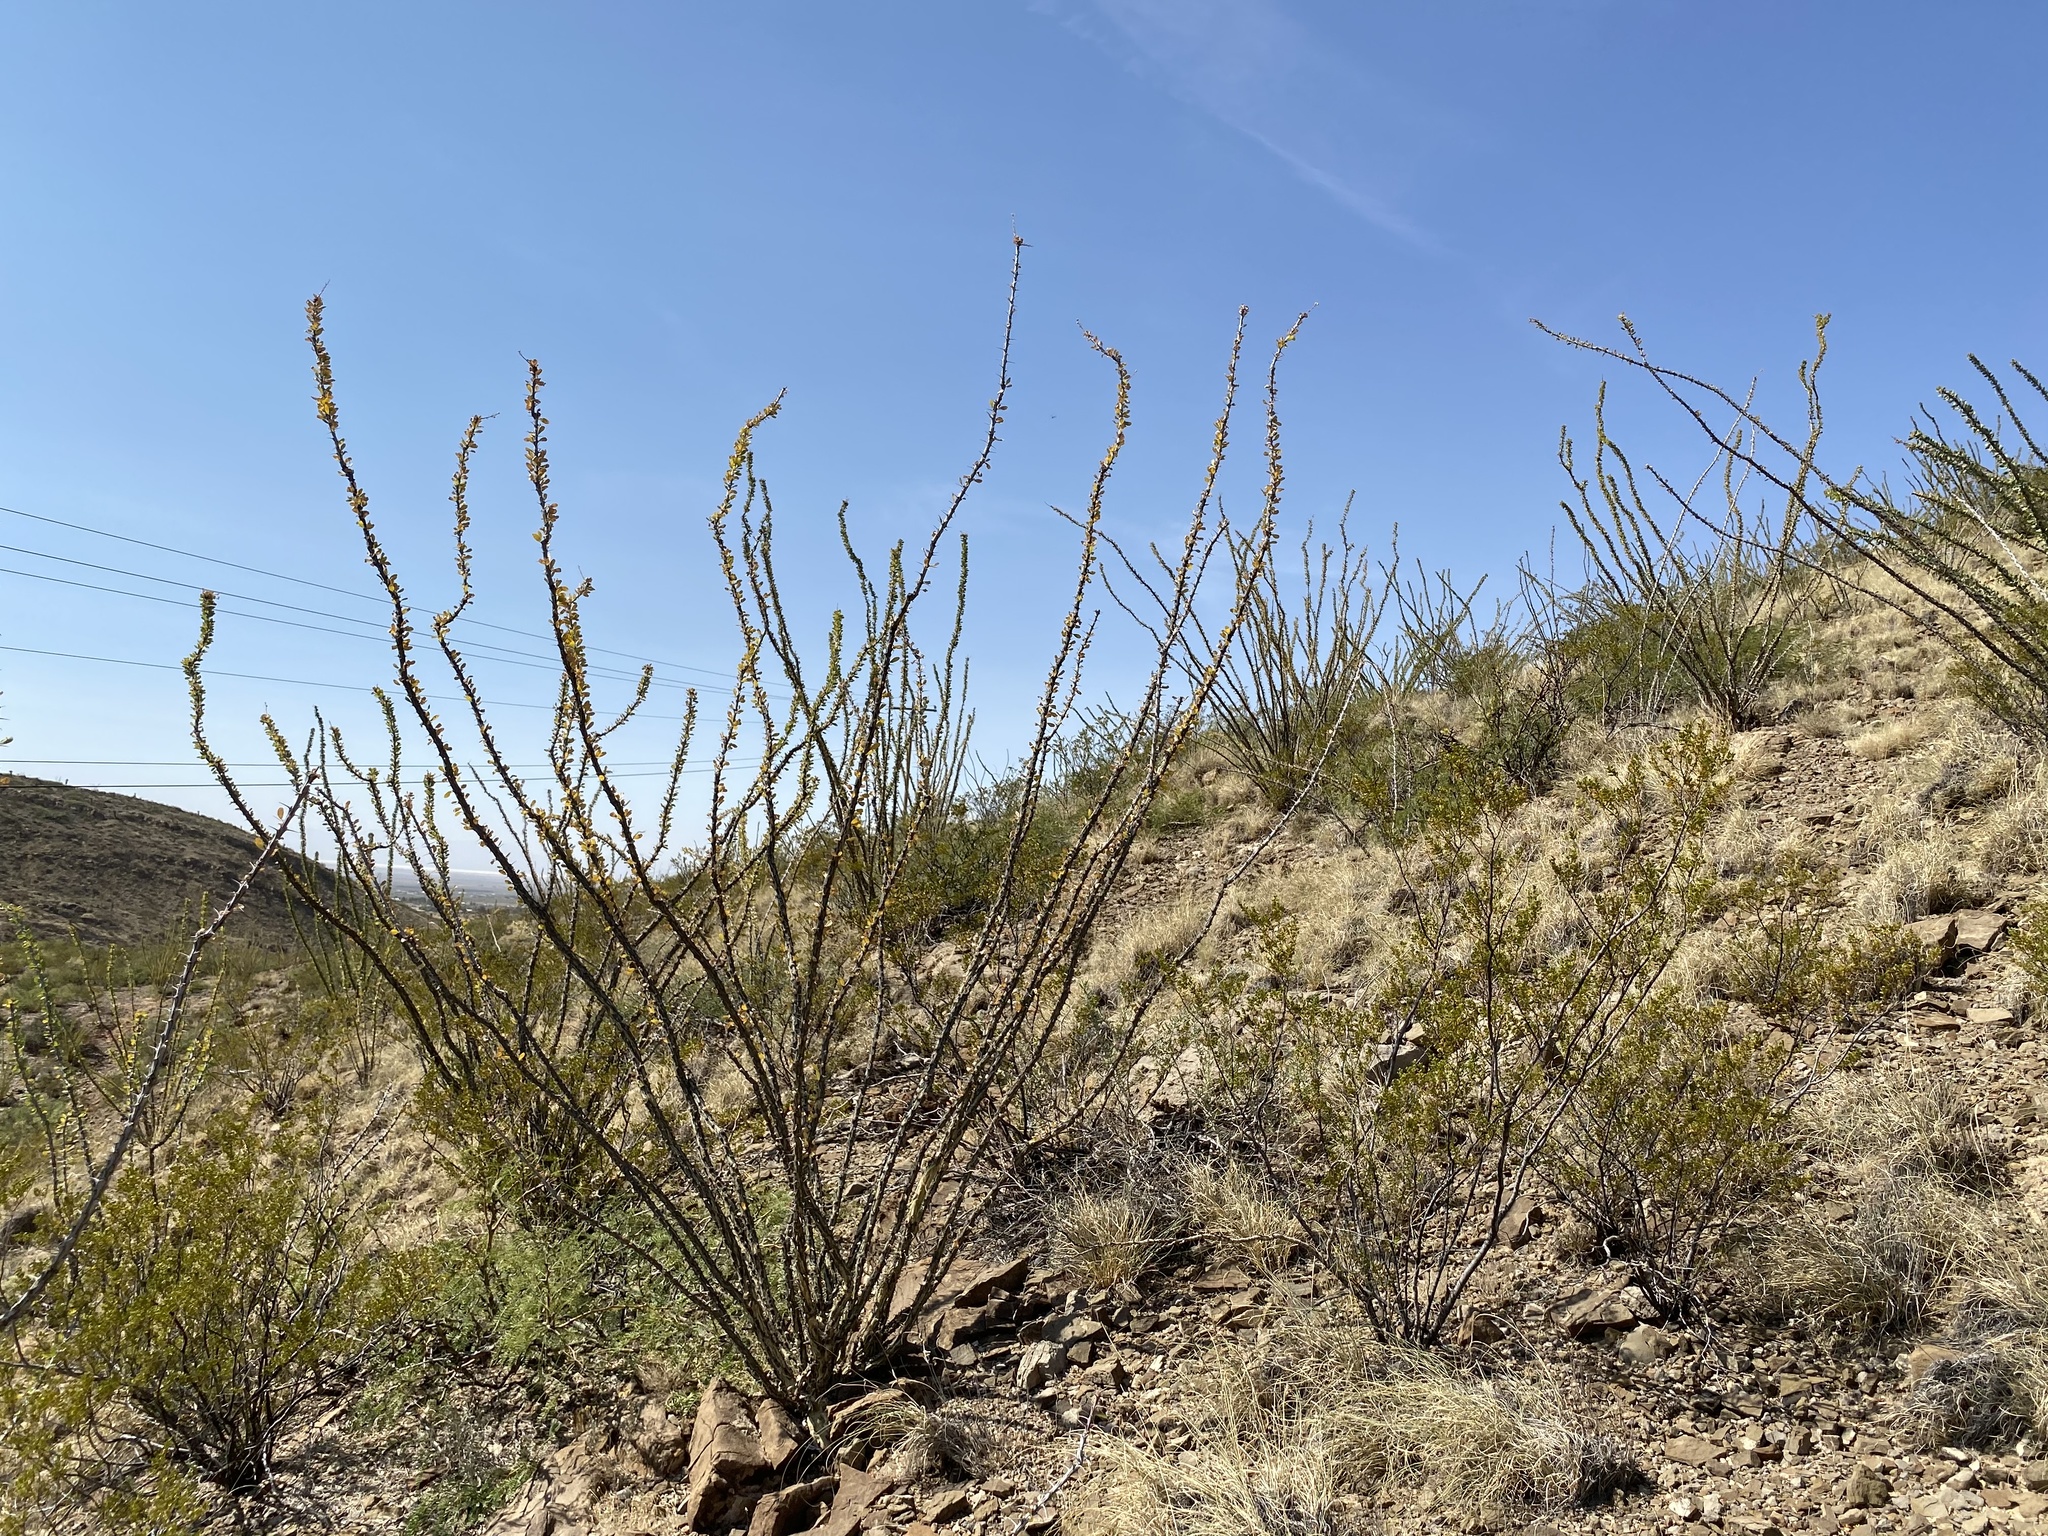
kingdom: Plantae
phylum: Tracheophyta
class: Magnoliopsida
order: Ericales
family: Fouquieriaceae
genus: Fouquieria
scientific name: Fouquieria splendens
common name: Vine-cactus
